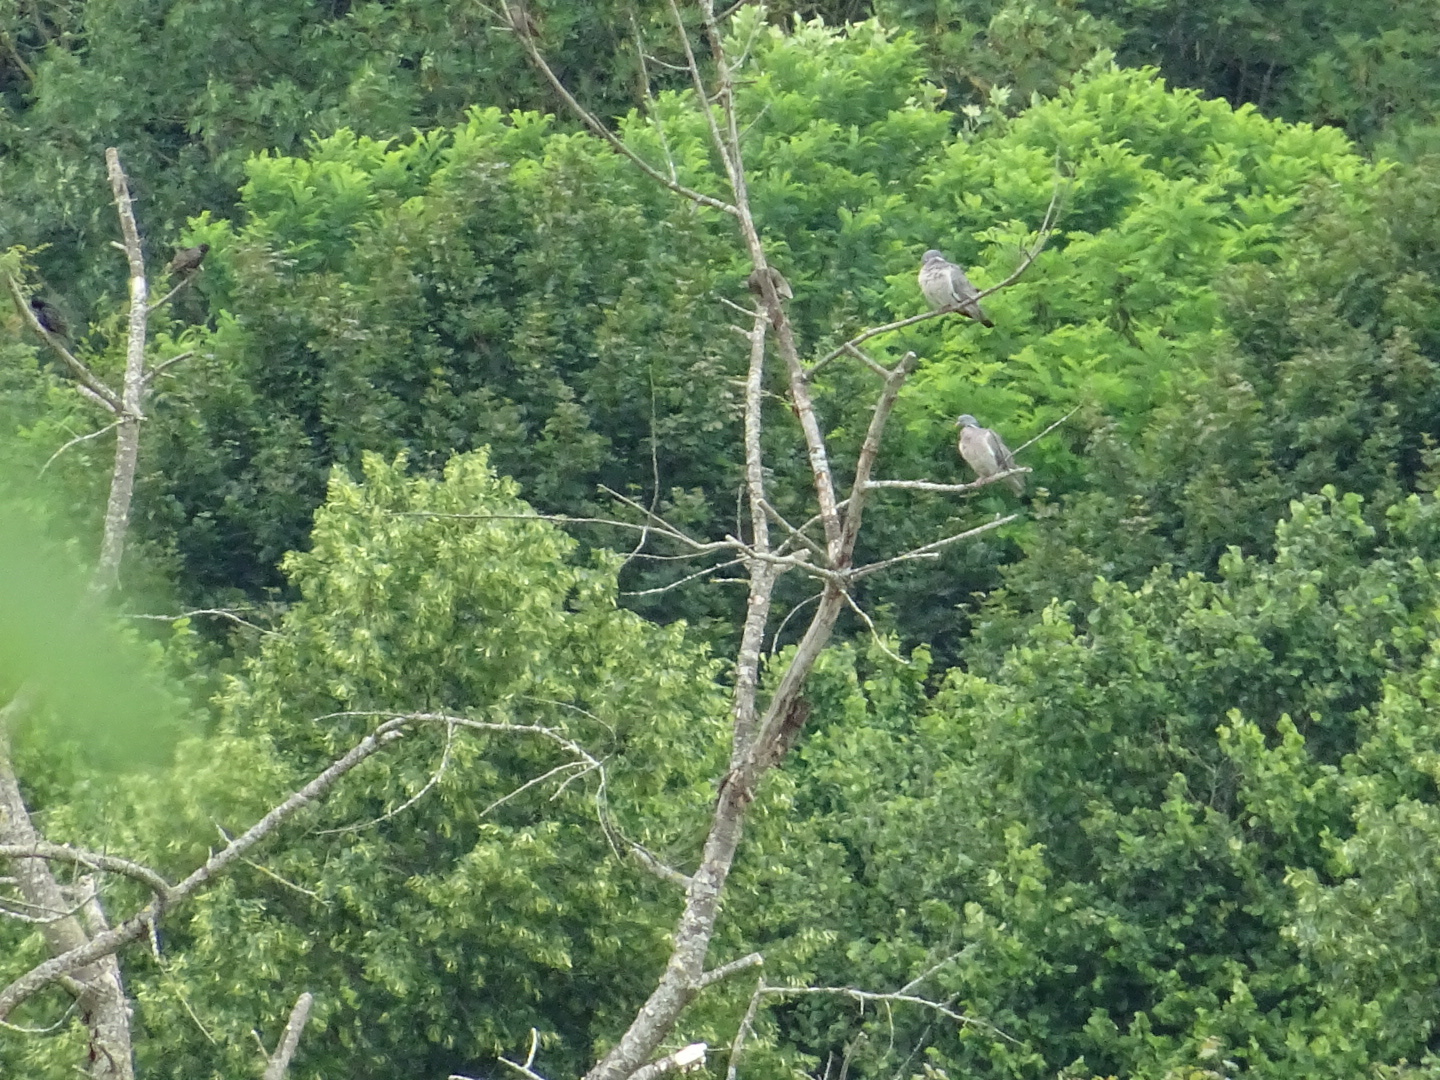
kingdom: Animalia
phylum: Chordata
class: Aves
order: Columbiformes
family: Columbidae
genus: Columba
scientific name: Columba palumbus
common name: Common wood pigeon
